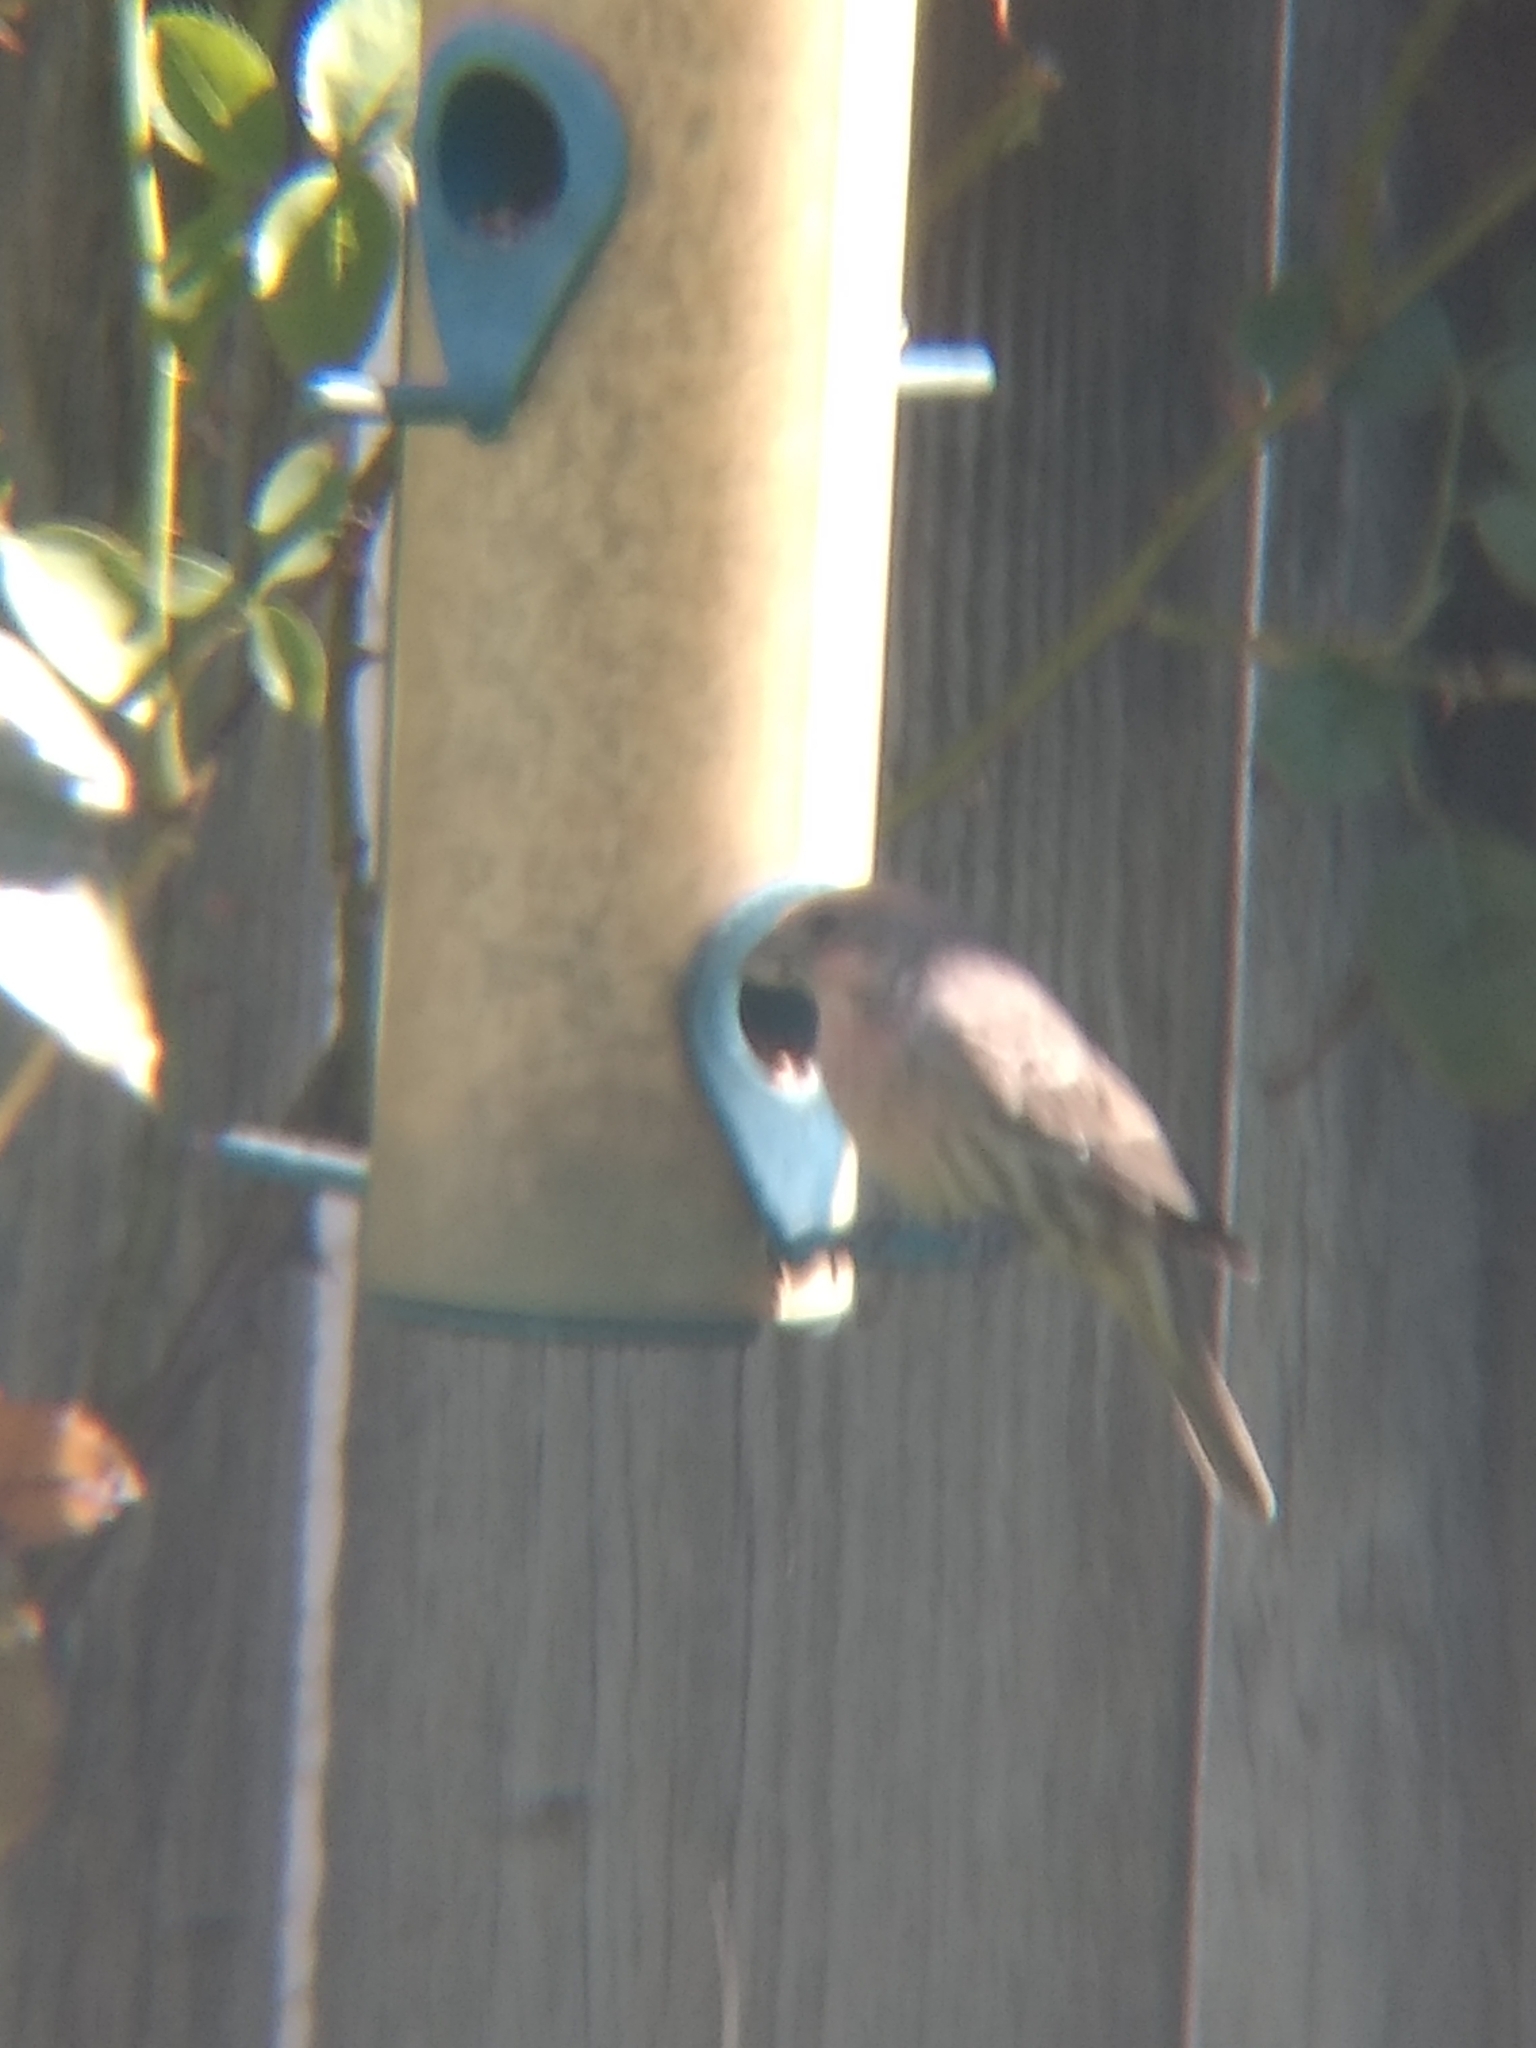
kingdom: Animalia
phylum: Chordata
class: Aves
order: Passeriformes
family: Fringillidae
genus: Haemorhous
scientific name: Haemorhous mexicanus
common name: House finch
